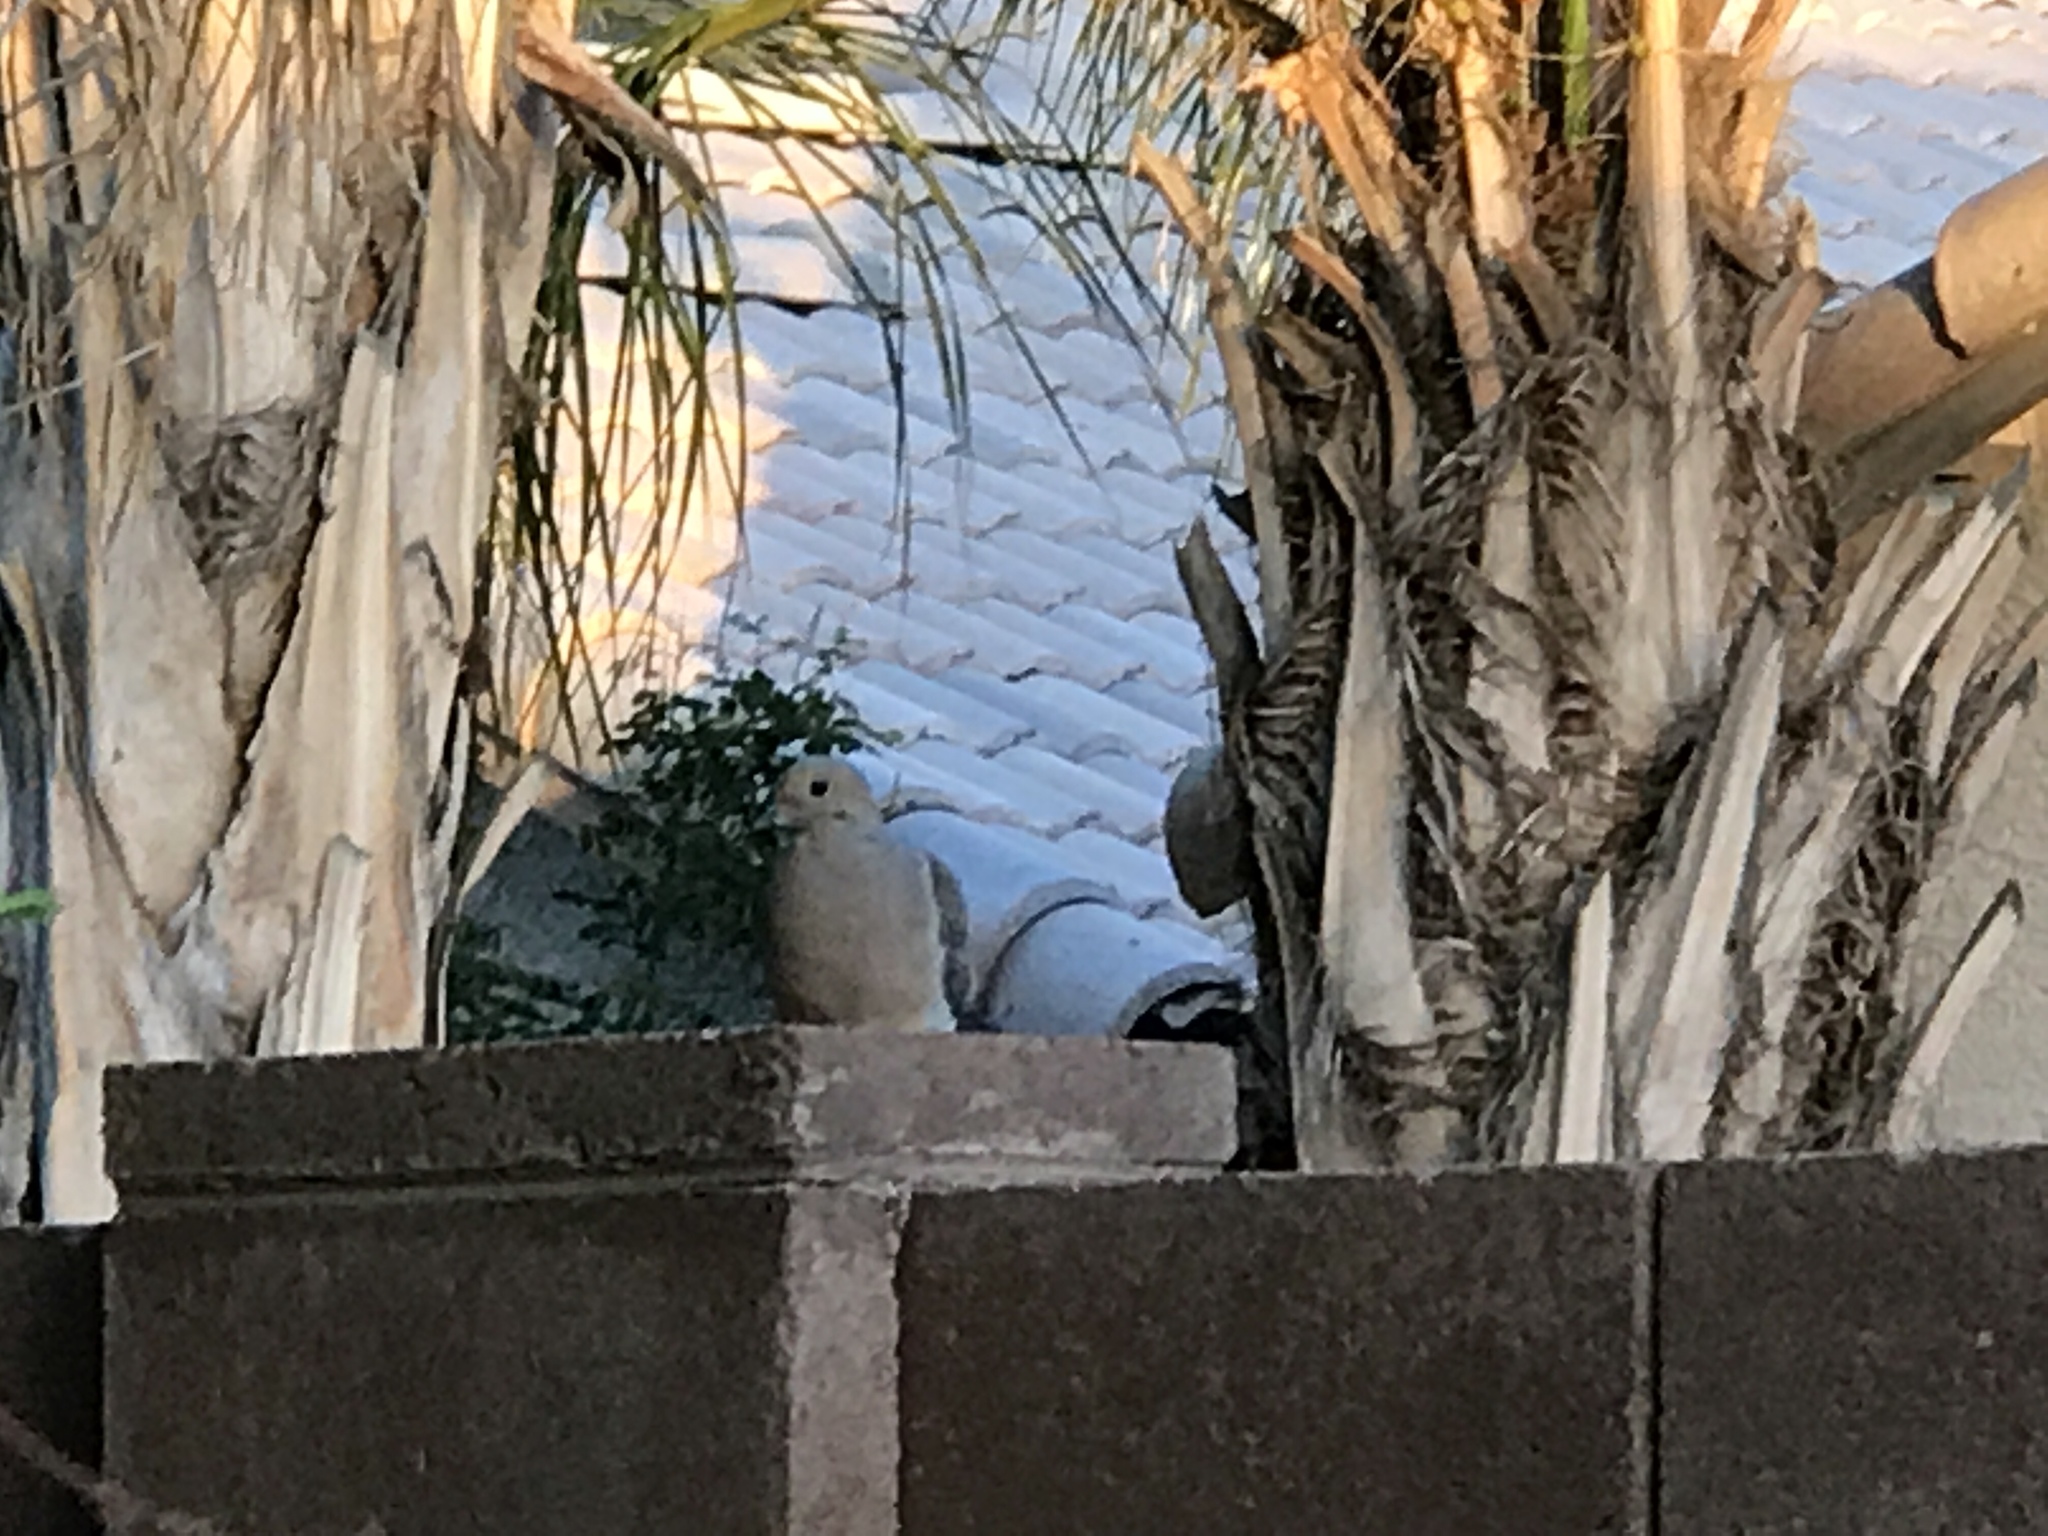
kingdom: Animalia
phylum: Chordata
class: Aves
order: Columbiformes
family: Columbidae
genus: Zenaida
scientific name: Zenaida macroura
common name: Mourning dove
